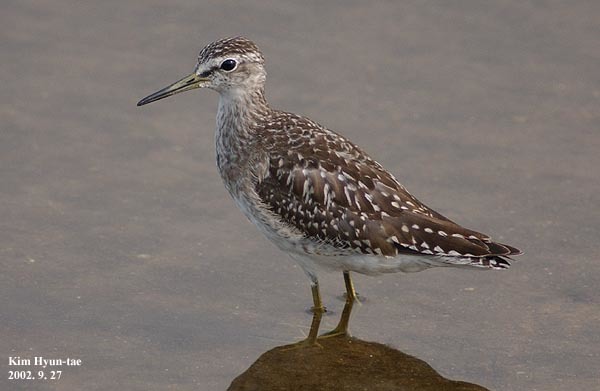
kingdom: Animalia
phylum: Chordata
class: Aves
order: Charadriiformes
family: Scolopacidae
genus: Tringa
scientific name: Tringa glareola
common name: Wood sandpiper
